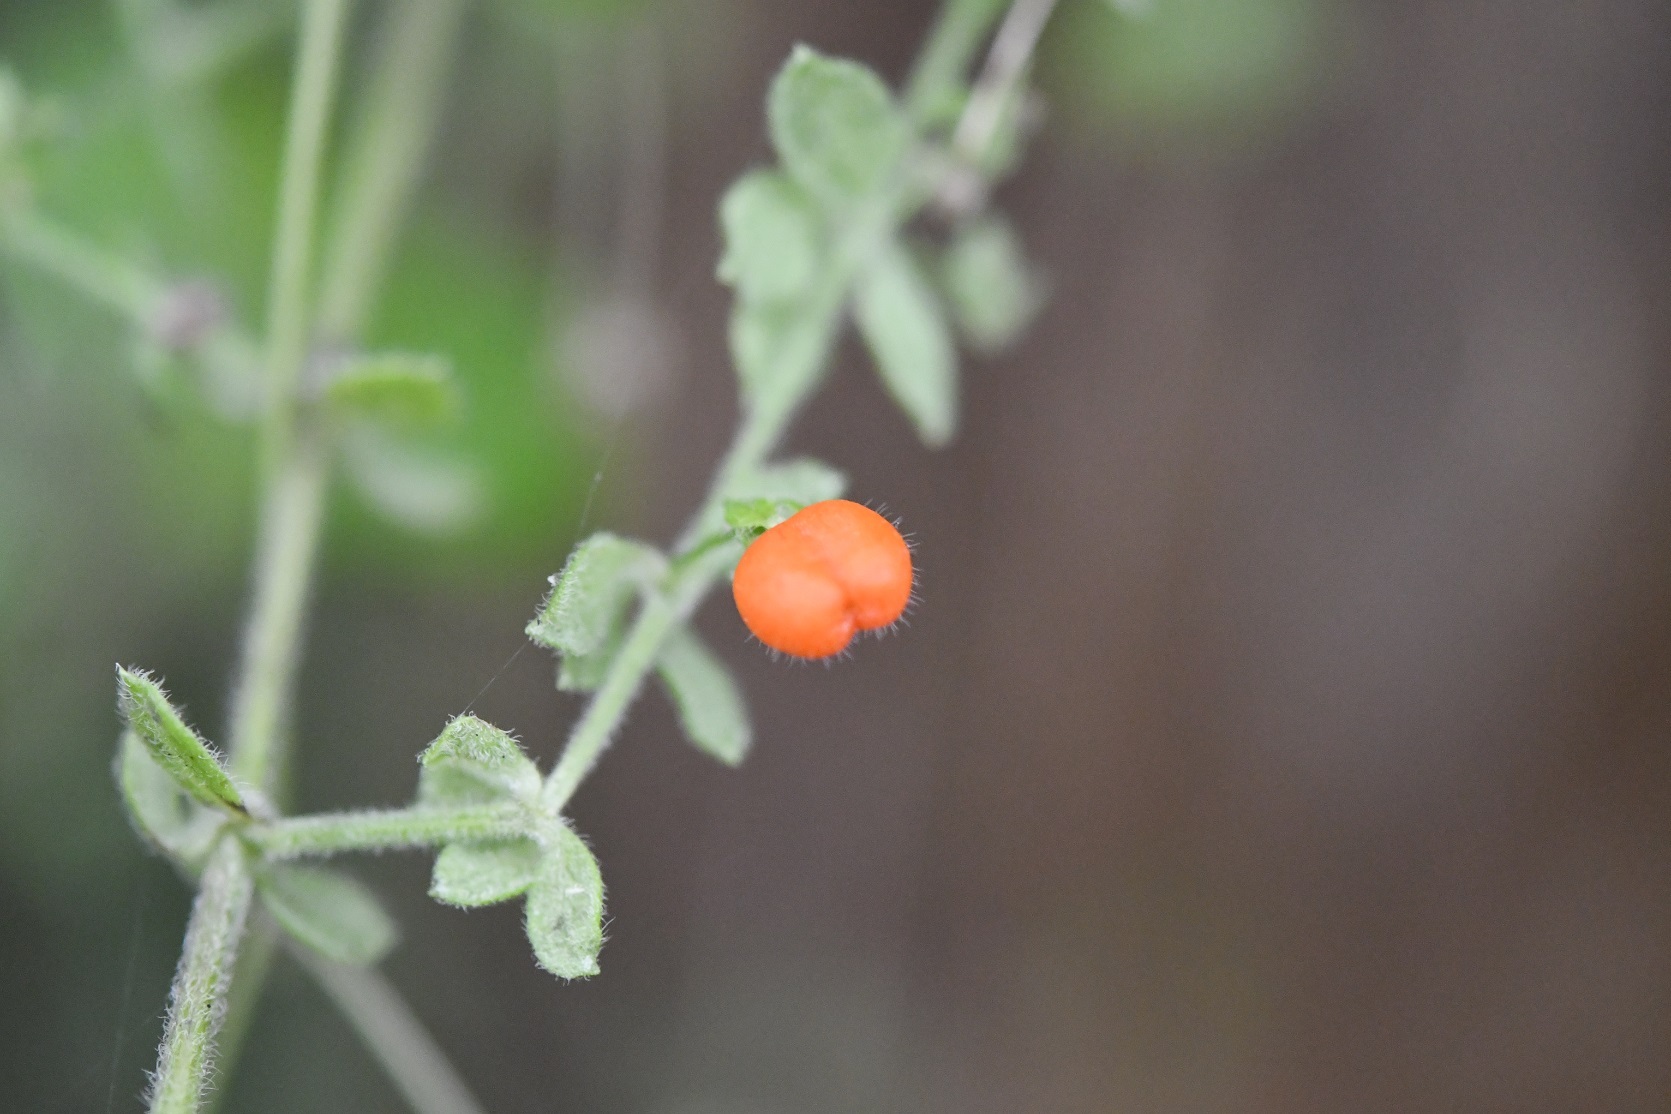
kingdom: Plantae
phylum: Tracheophyta
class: Magnoliopsida
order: Gentianales
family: Rubiaceae
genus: Galium
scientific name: Galium hypocarpium
